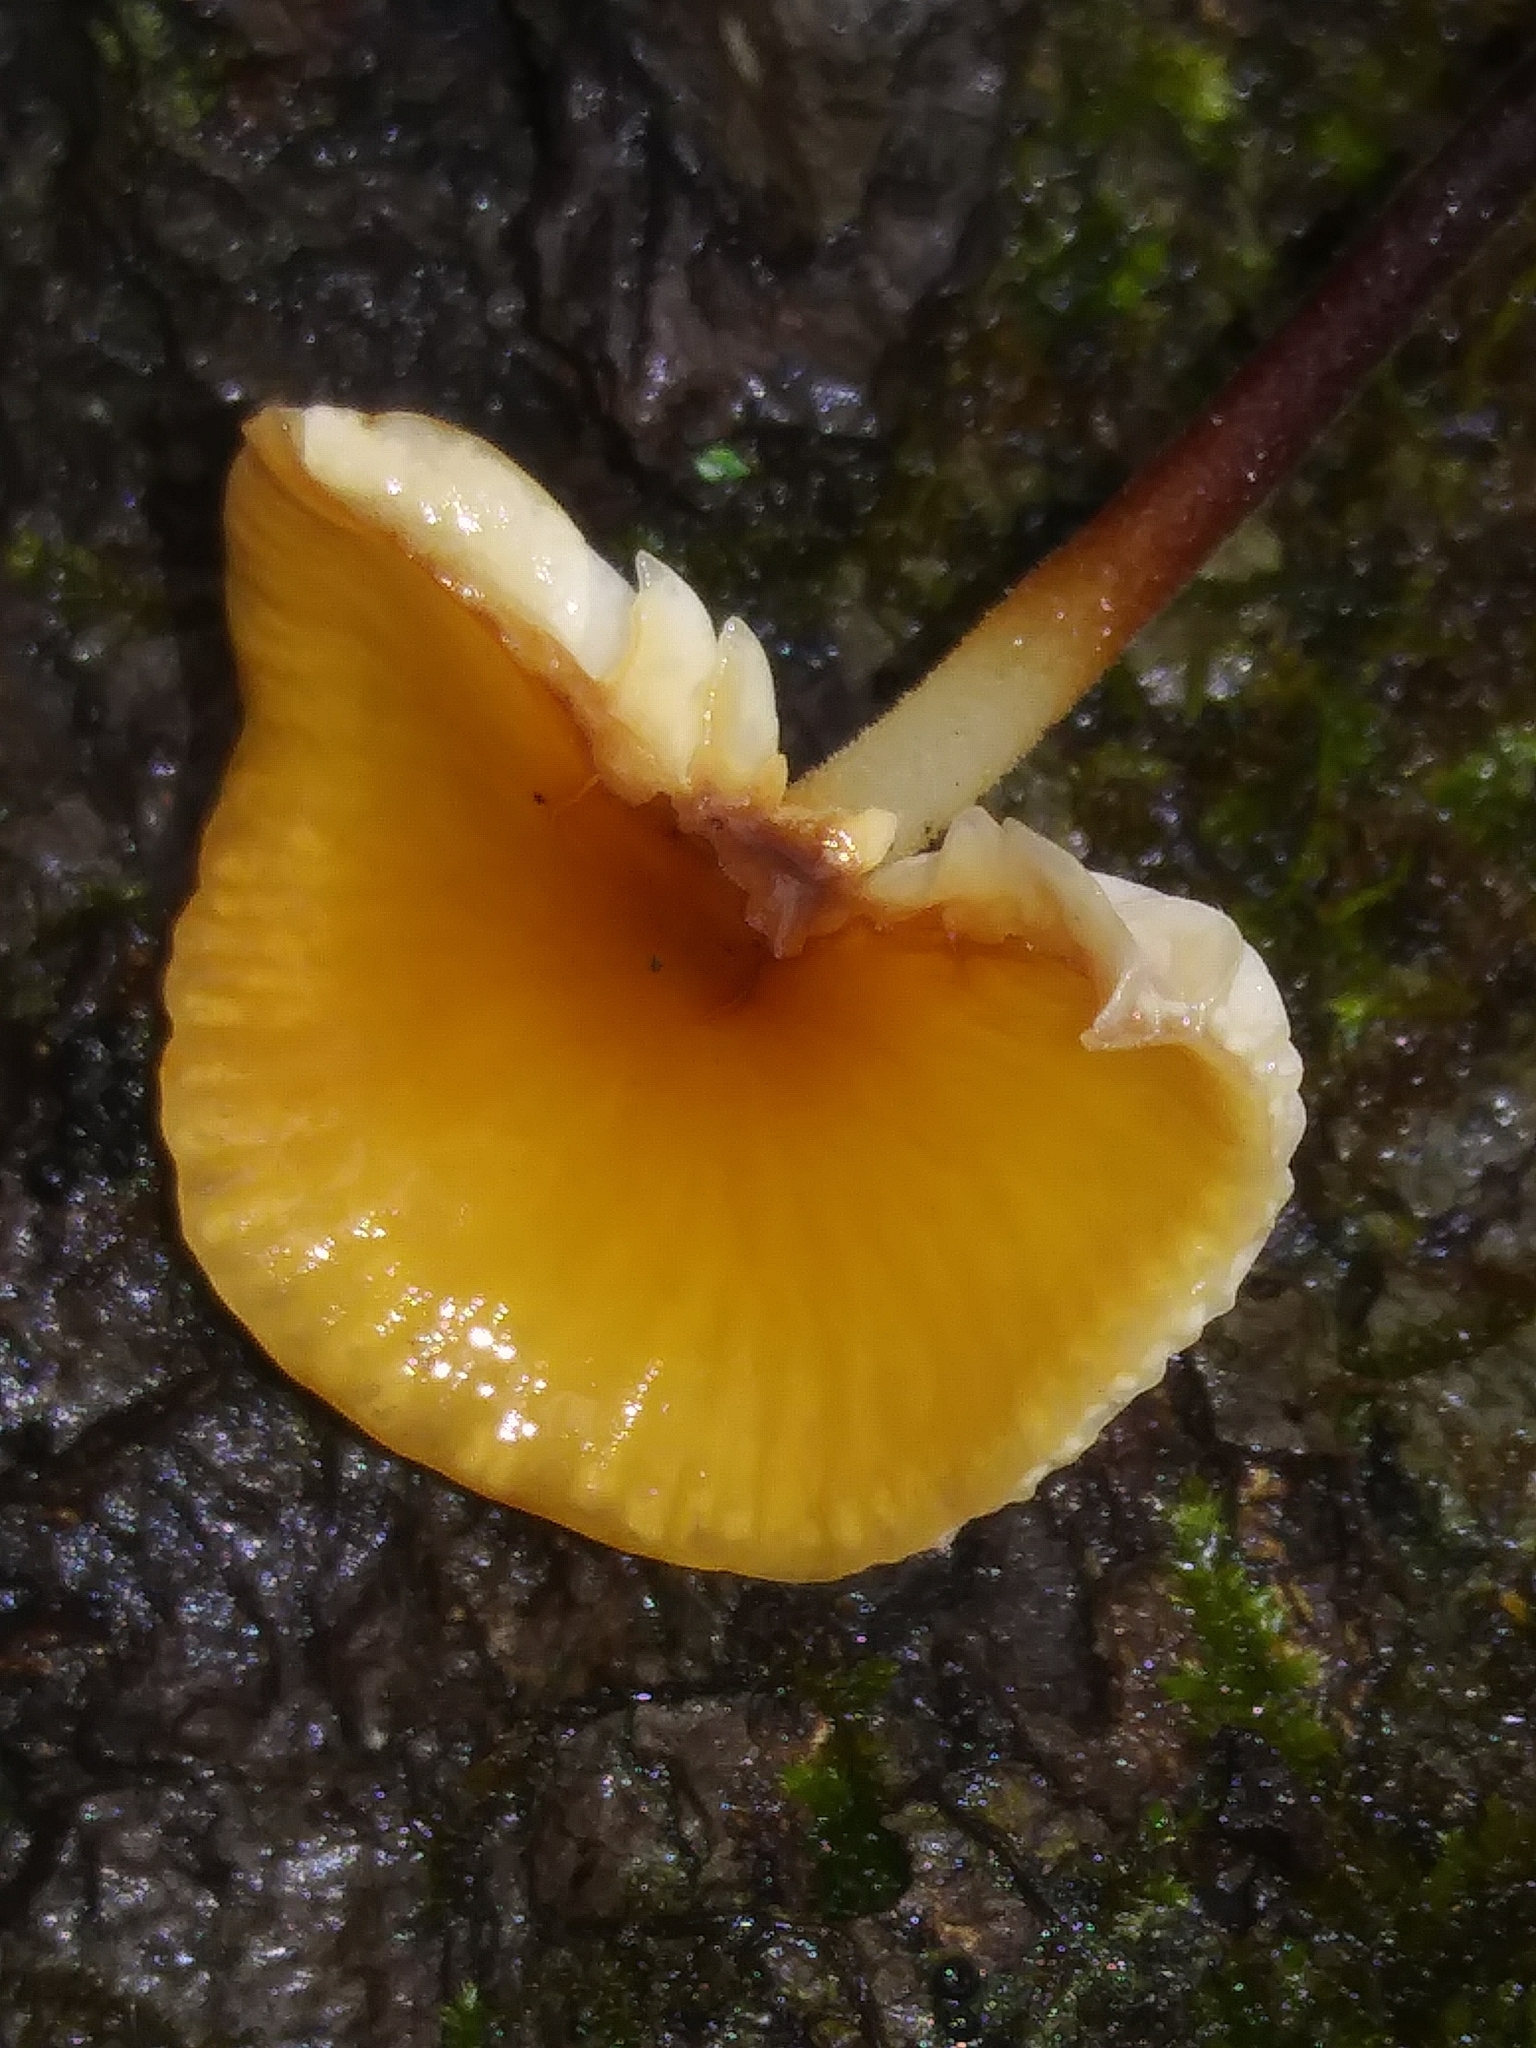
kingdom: Fungi
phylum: Basidiomycota
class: Agaricomycetes
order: Agaricales
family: Mycenaceae
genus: Xeromphalina
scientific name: Xeromphalina cauticinalis
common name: Pinelitter gingertail
